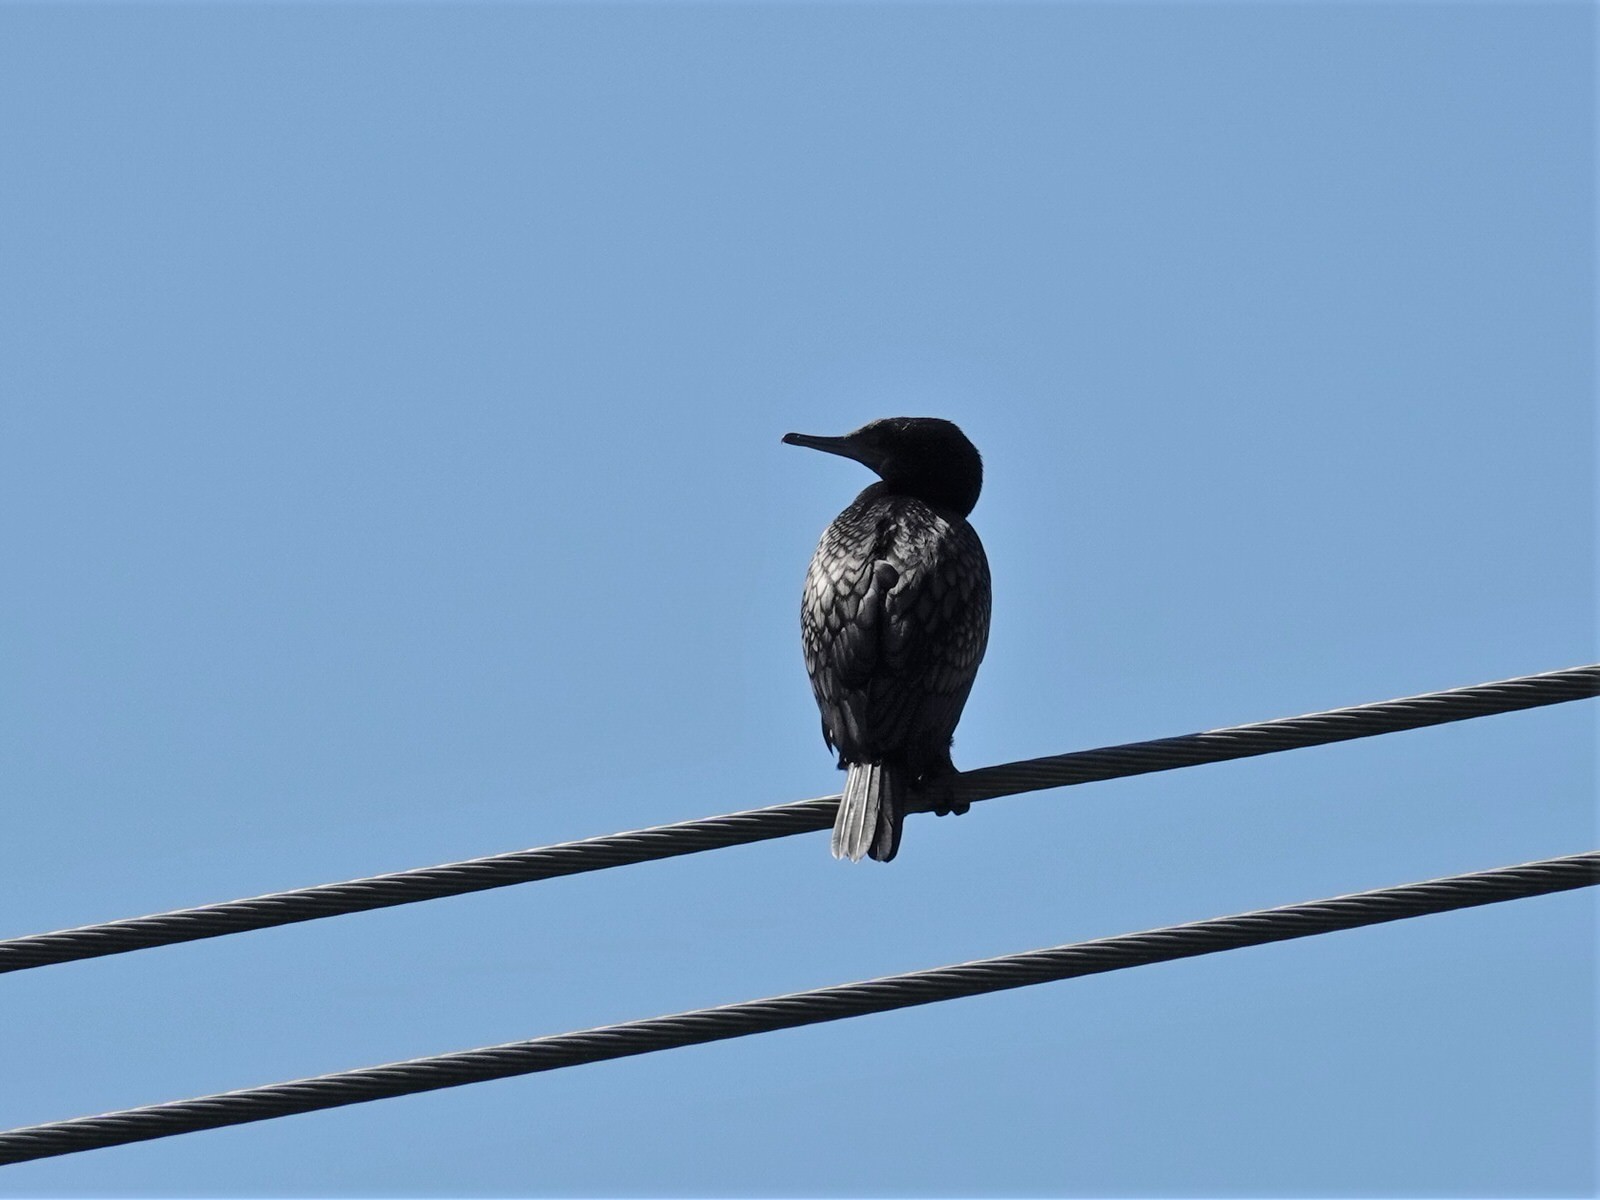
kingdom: Animalia
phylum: Chordata
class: Aves
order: Suliformes
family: Phalacrocoracidae
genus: Phalacrocorax
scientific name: Phalacrocorax sulcirostris
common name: Little black cormorant
